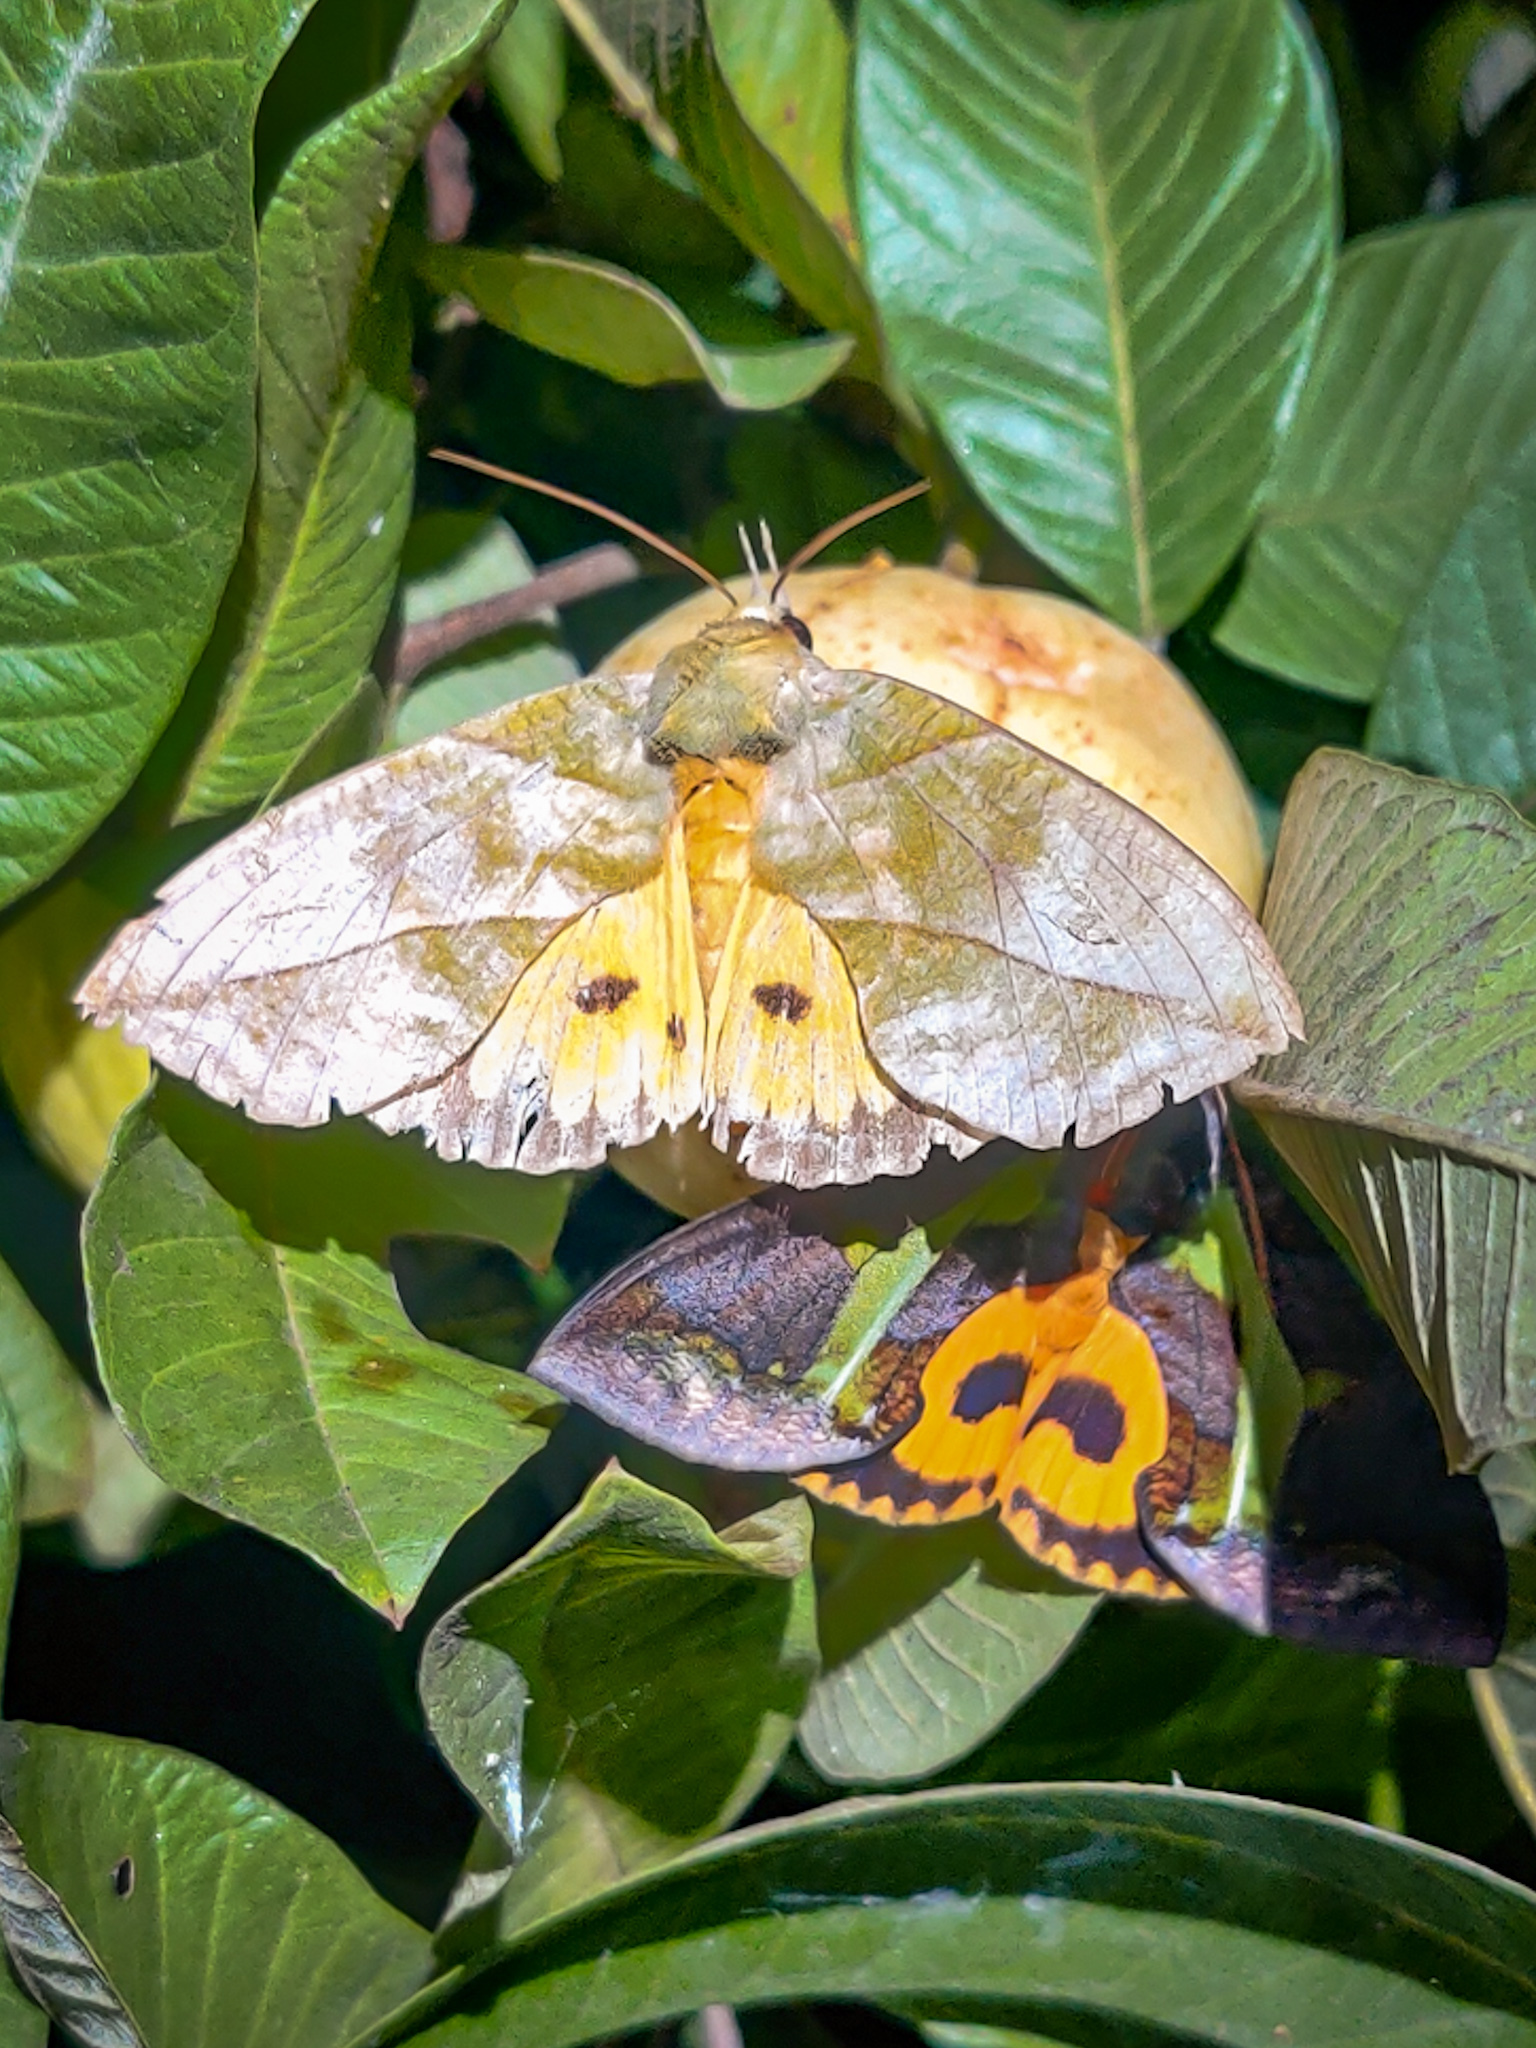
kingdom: Animalia
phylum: Arthropoda
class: Insecta
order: Lepidoptera
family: Erebidae
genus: Eudocima
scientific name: Eudocima homaena
